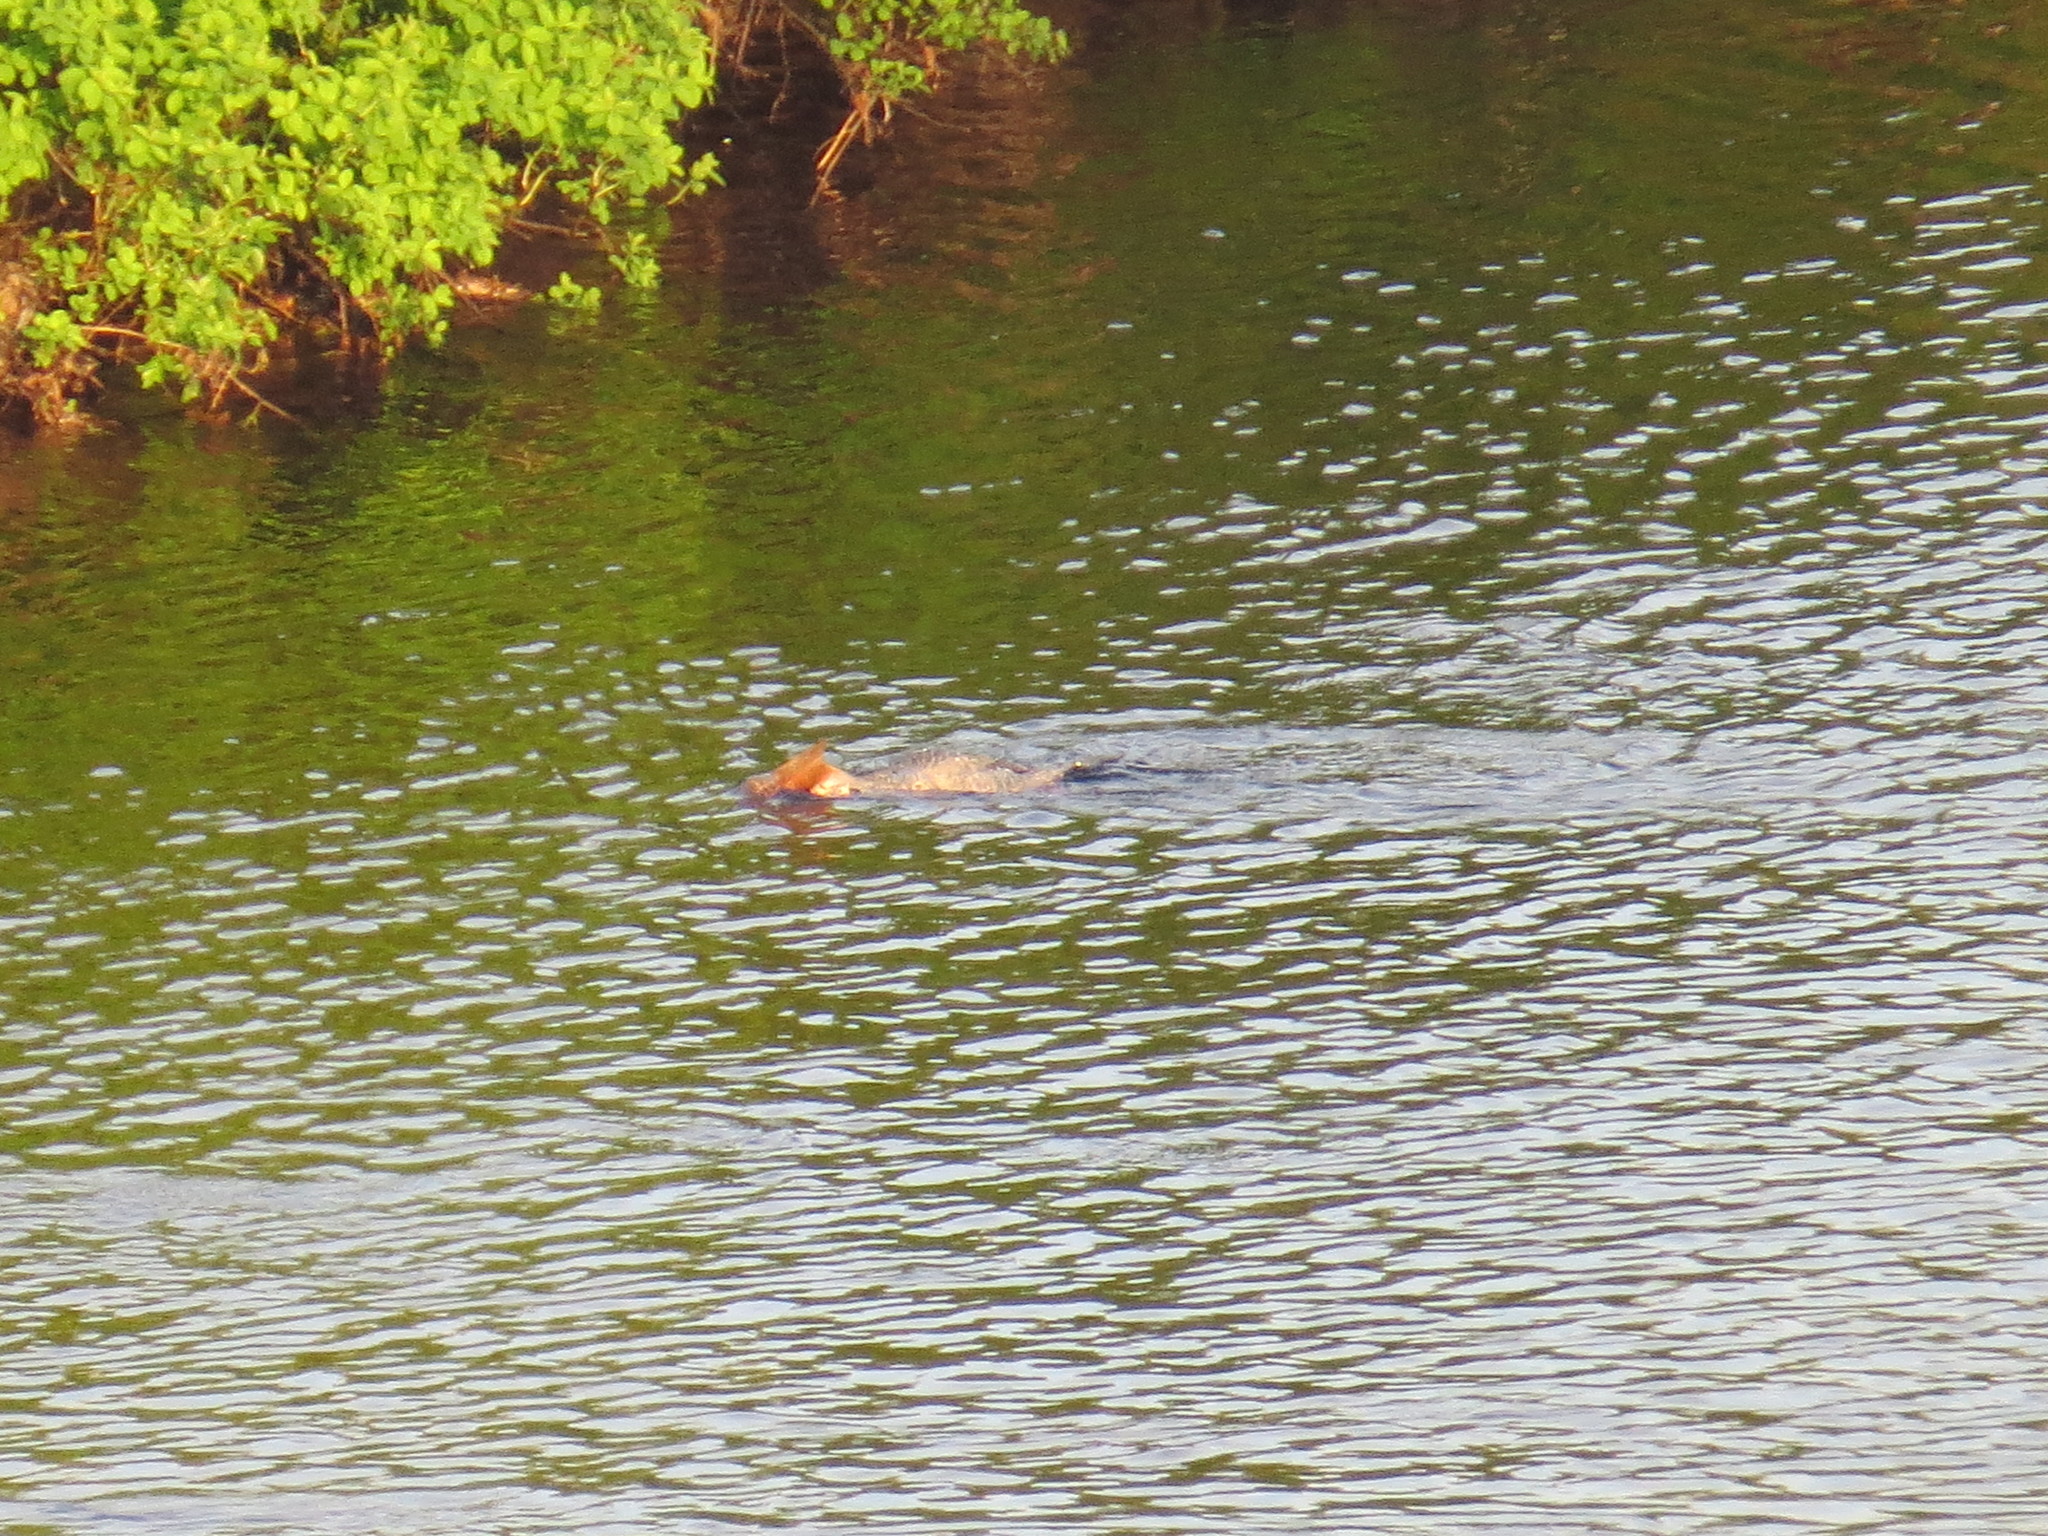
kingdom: Animalia
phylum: Chordata
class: Aves
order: Anseriformes
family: Anatidae
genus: Mergus
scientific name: Mergus merganser
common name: Common merganser
